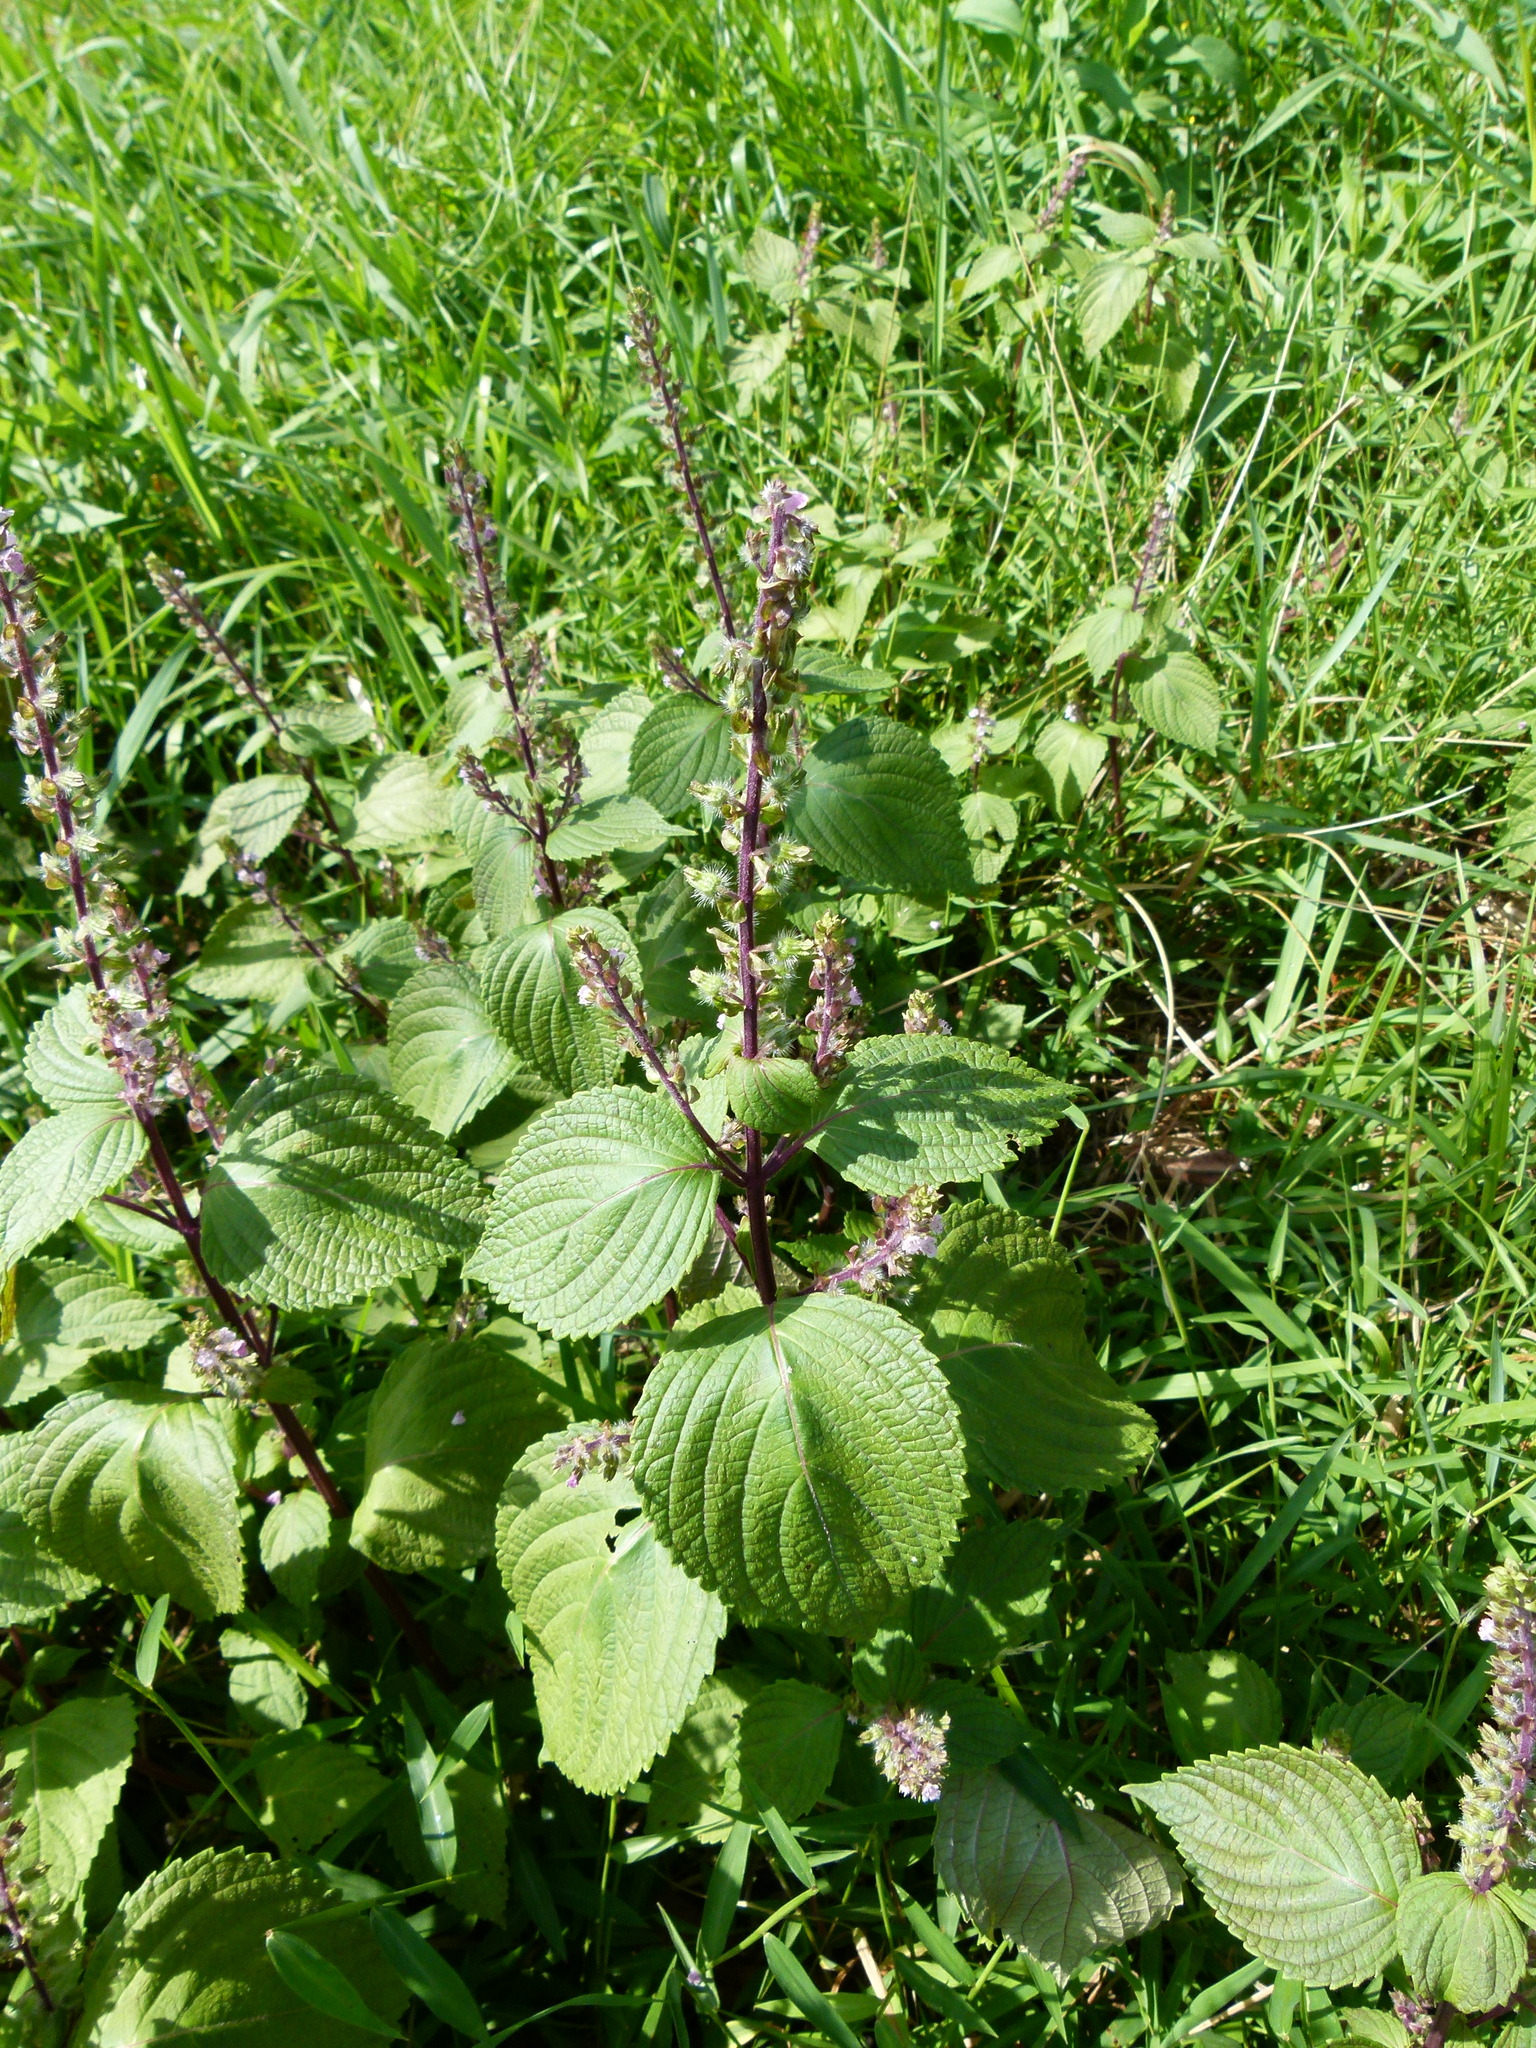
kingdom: Plantae
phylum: Tracheophyta
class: Magnoliopsida
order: Lamiales
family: Lamiaceae
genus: Perilla
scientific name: Perilla frutescens
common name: Perilla
